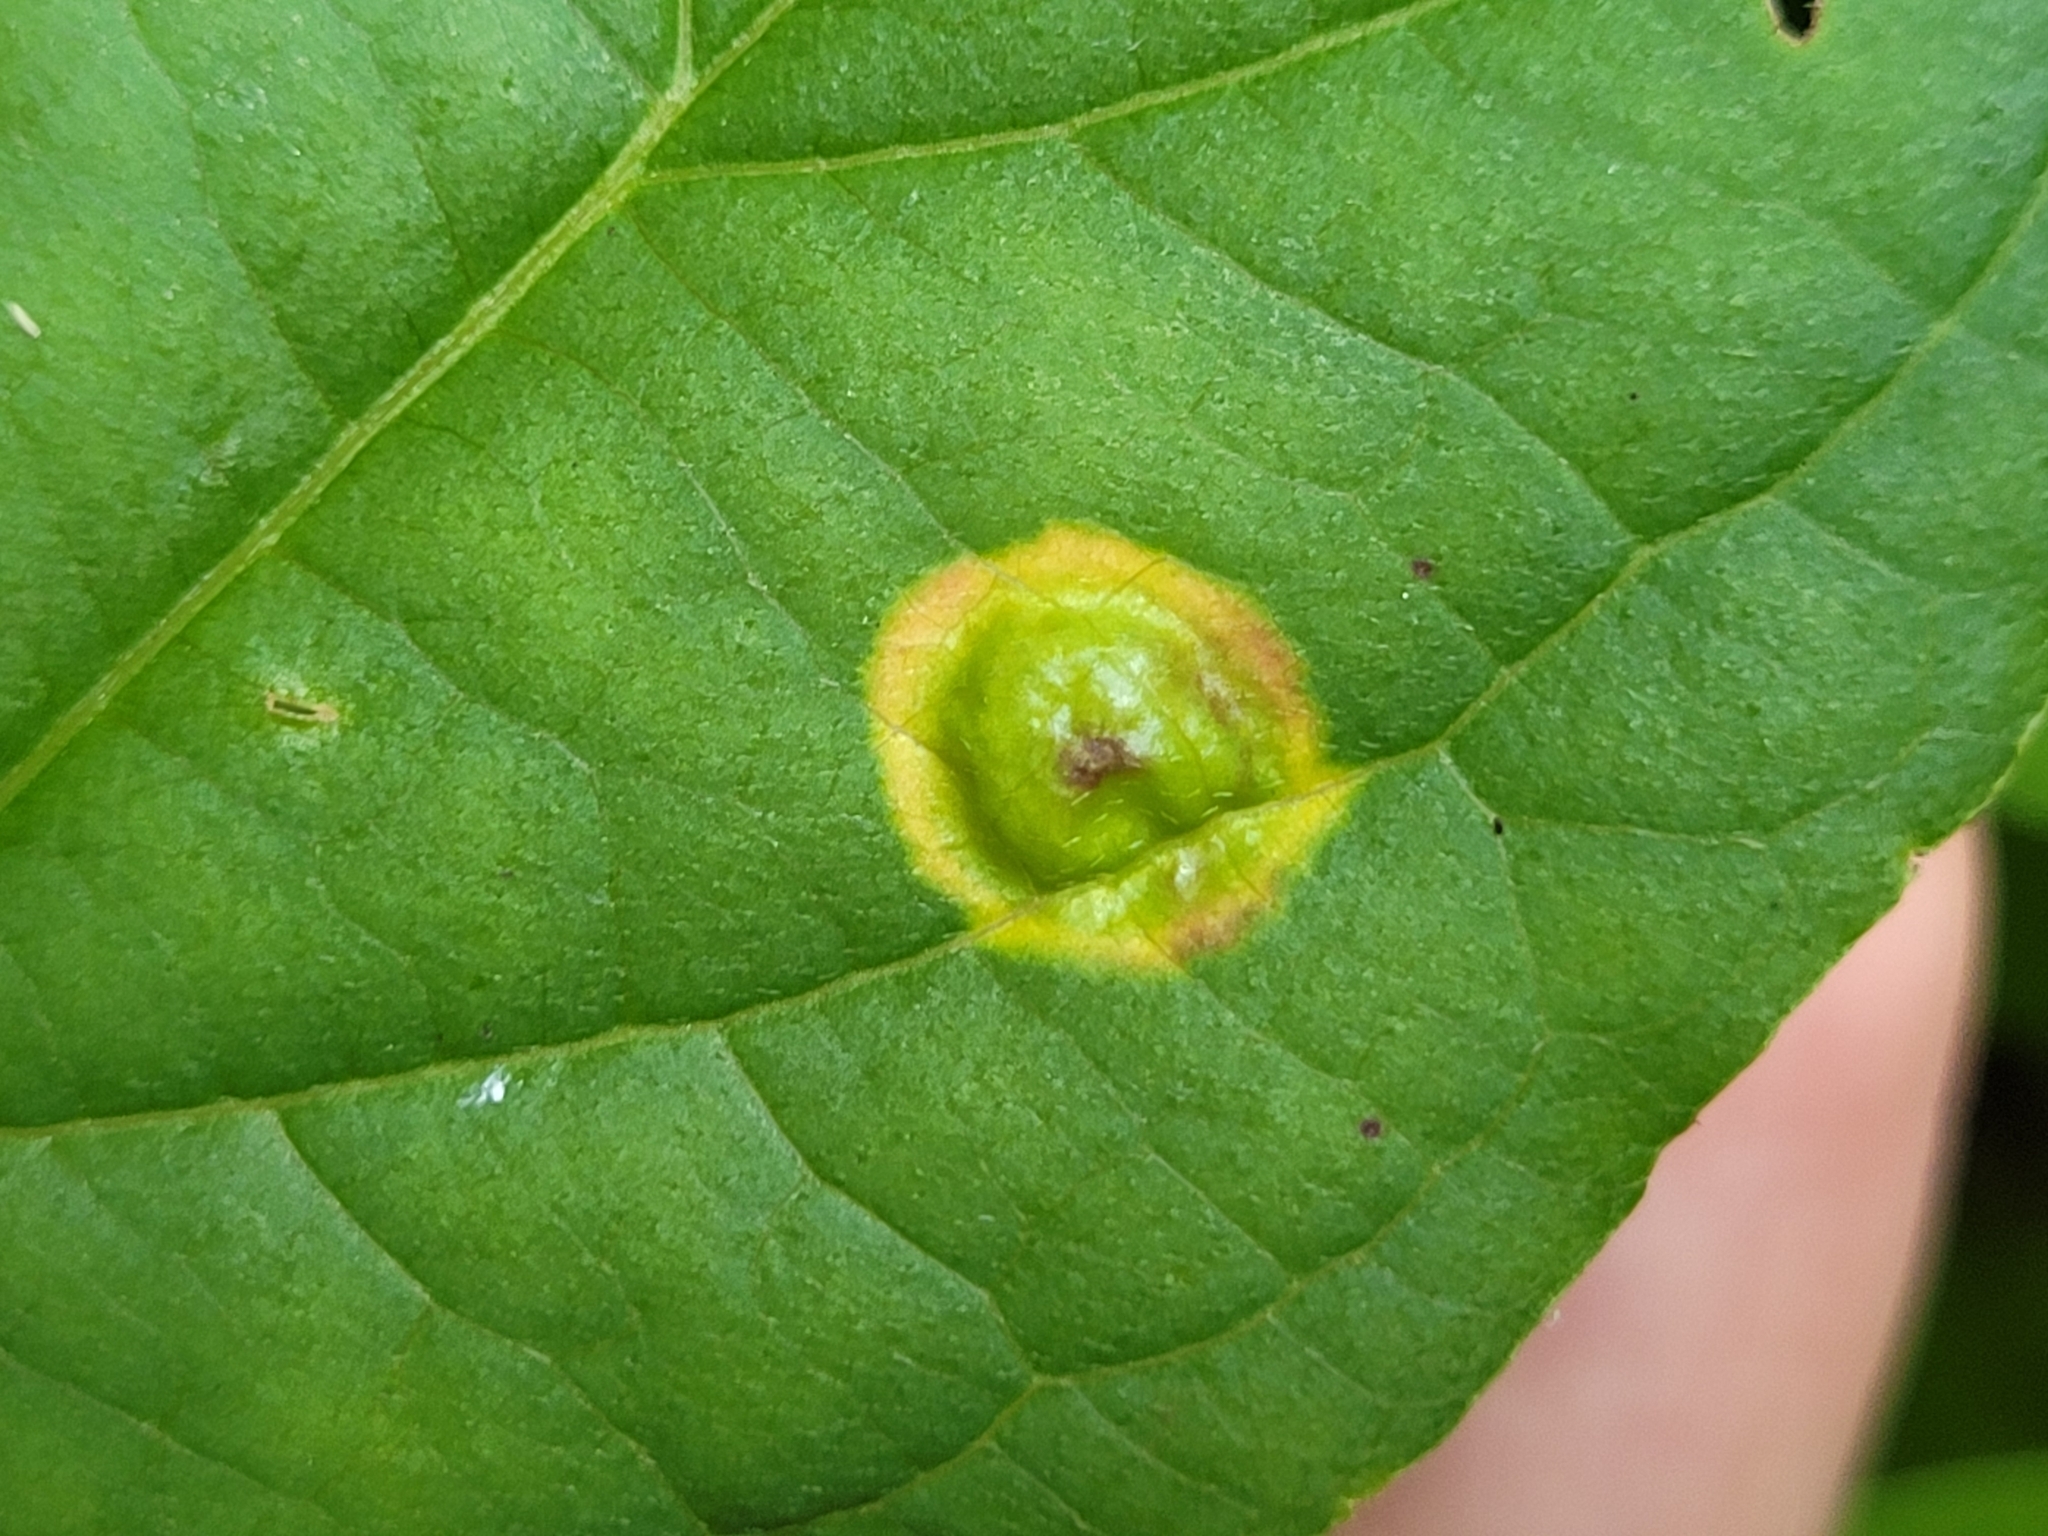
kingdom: Animalia
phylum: Arthropoda
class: Insecta
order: Diptera
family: Cecidomyiidae
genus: Parallelodiplosis
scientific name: Parallelodiplosis subtruncata
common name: Dogwood eyespot gall midge
